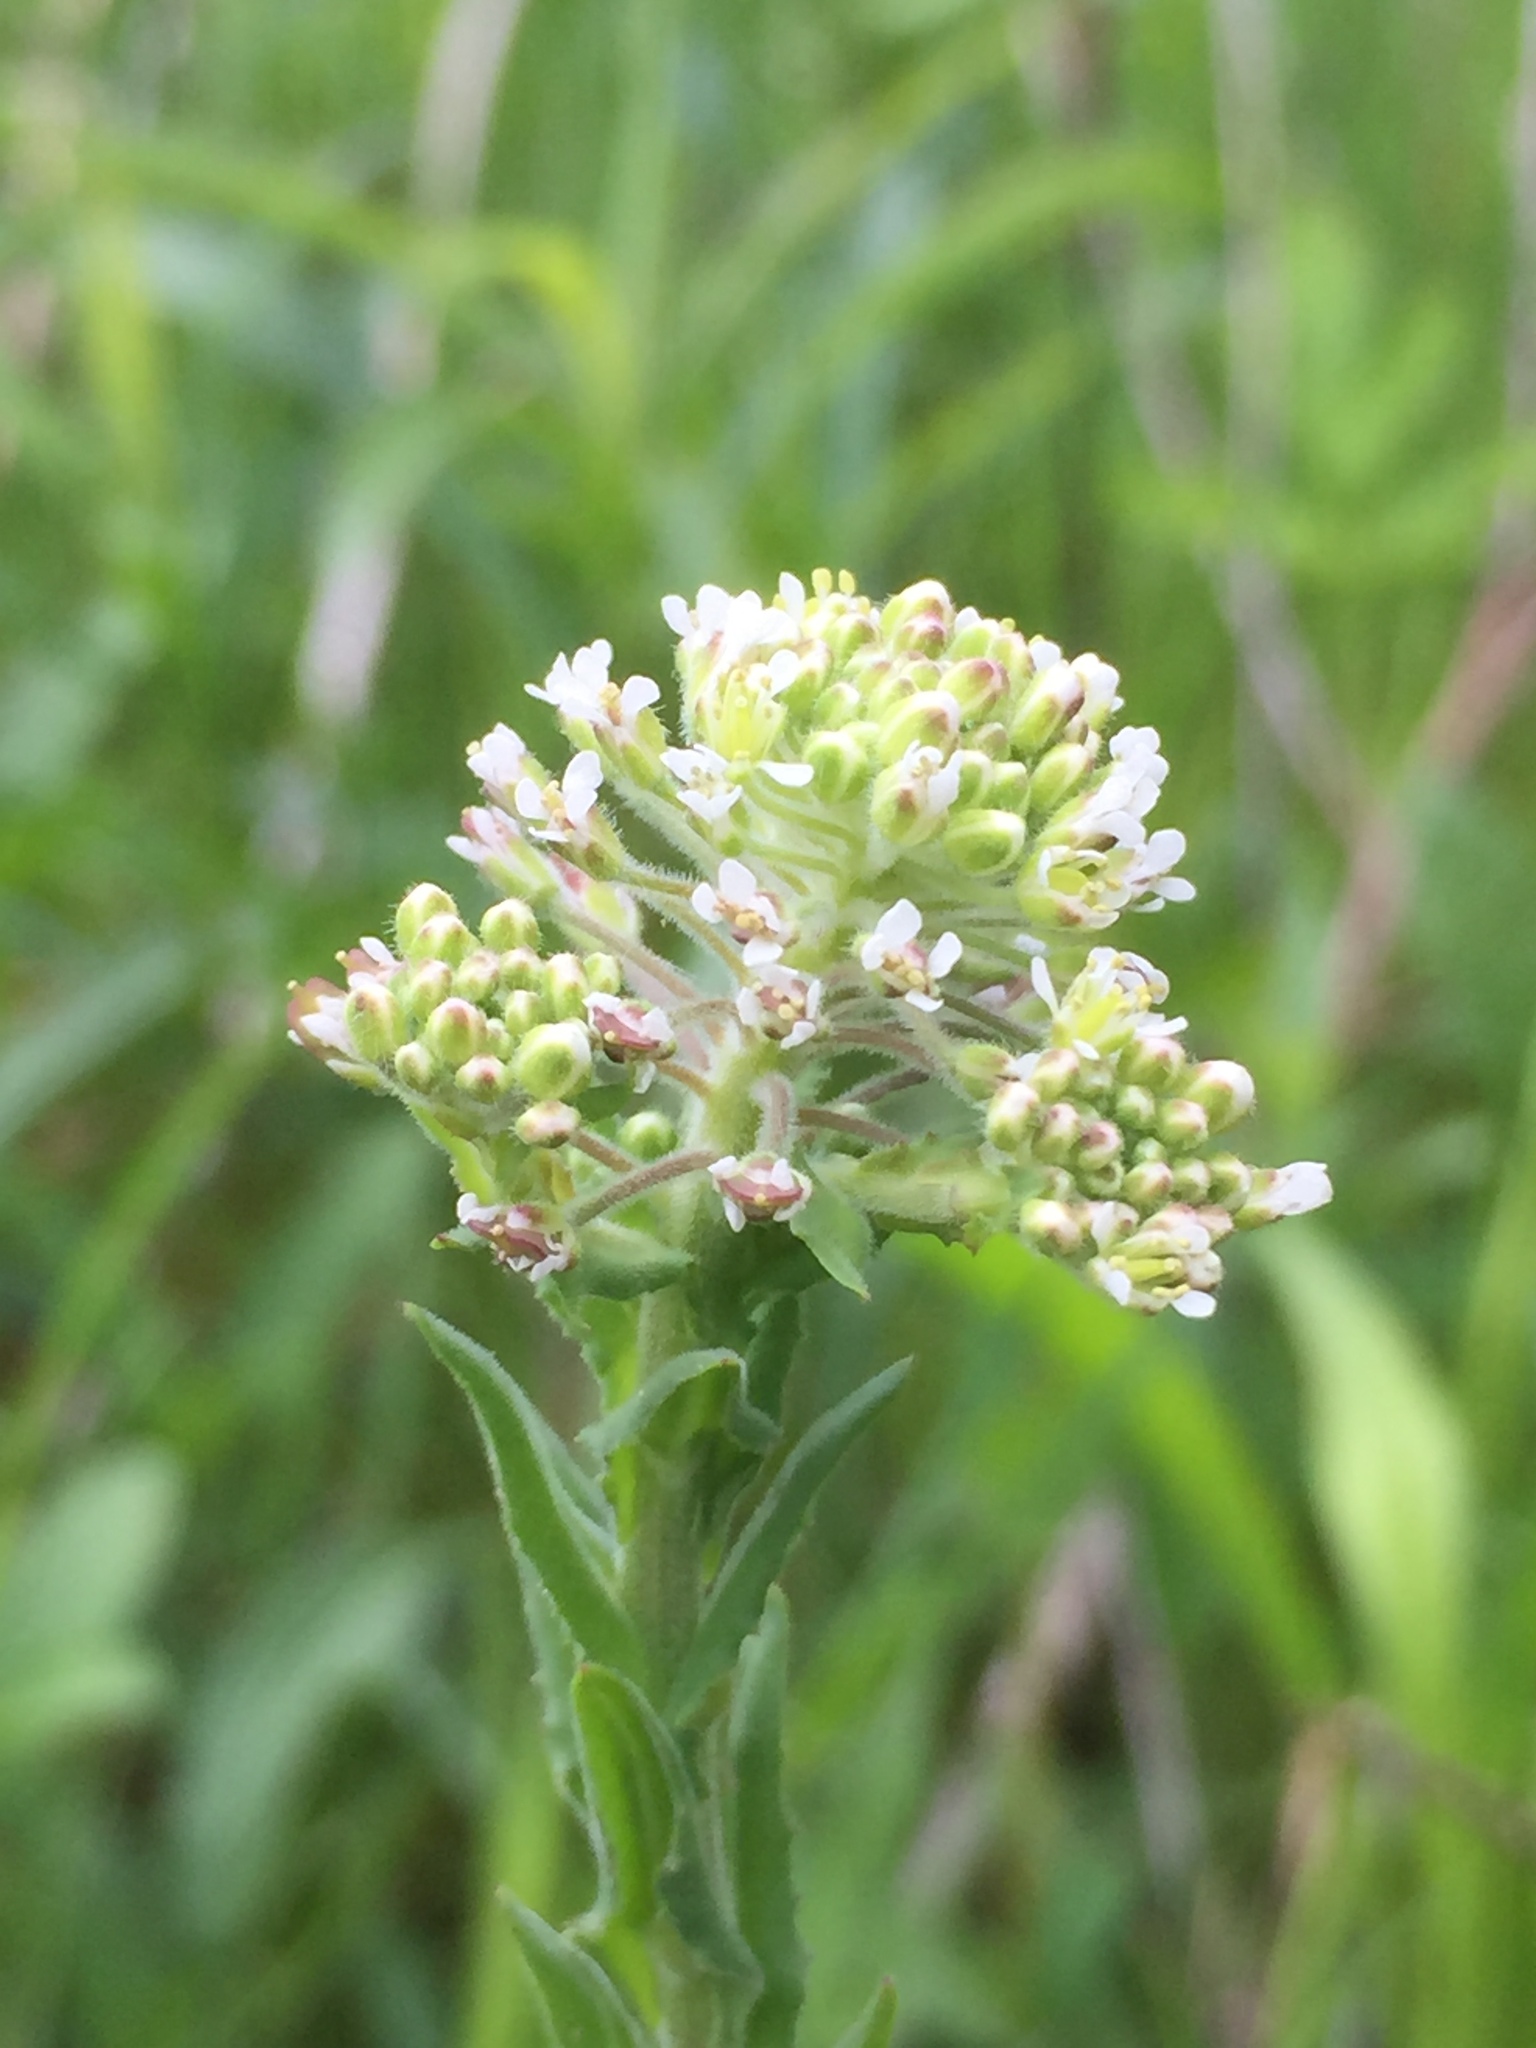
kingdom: Plantae
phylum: Tracheophyta
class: Magnoliopsida
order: Brassicales
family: Brassicaceae
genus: Lepidium
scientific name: Lepidium campestre
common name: Field pepperwort
